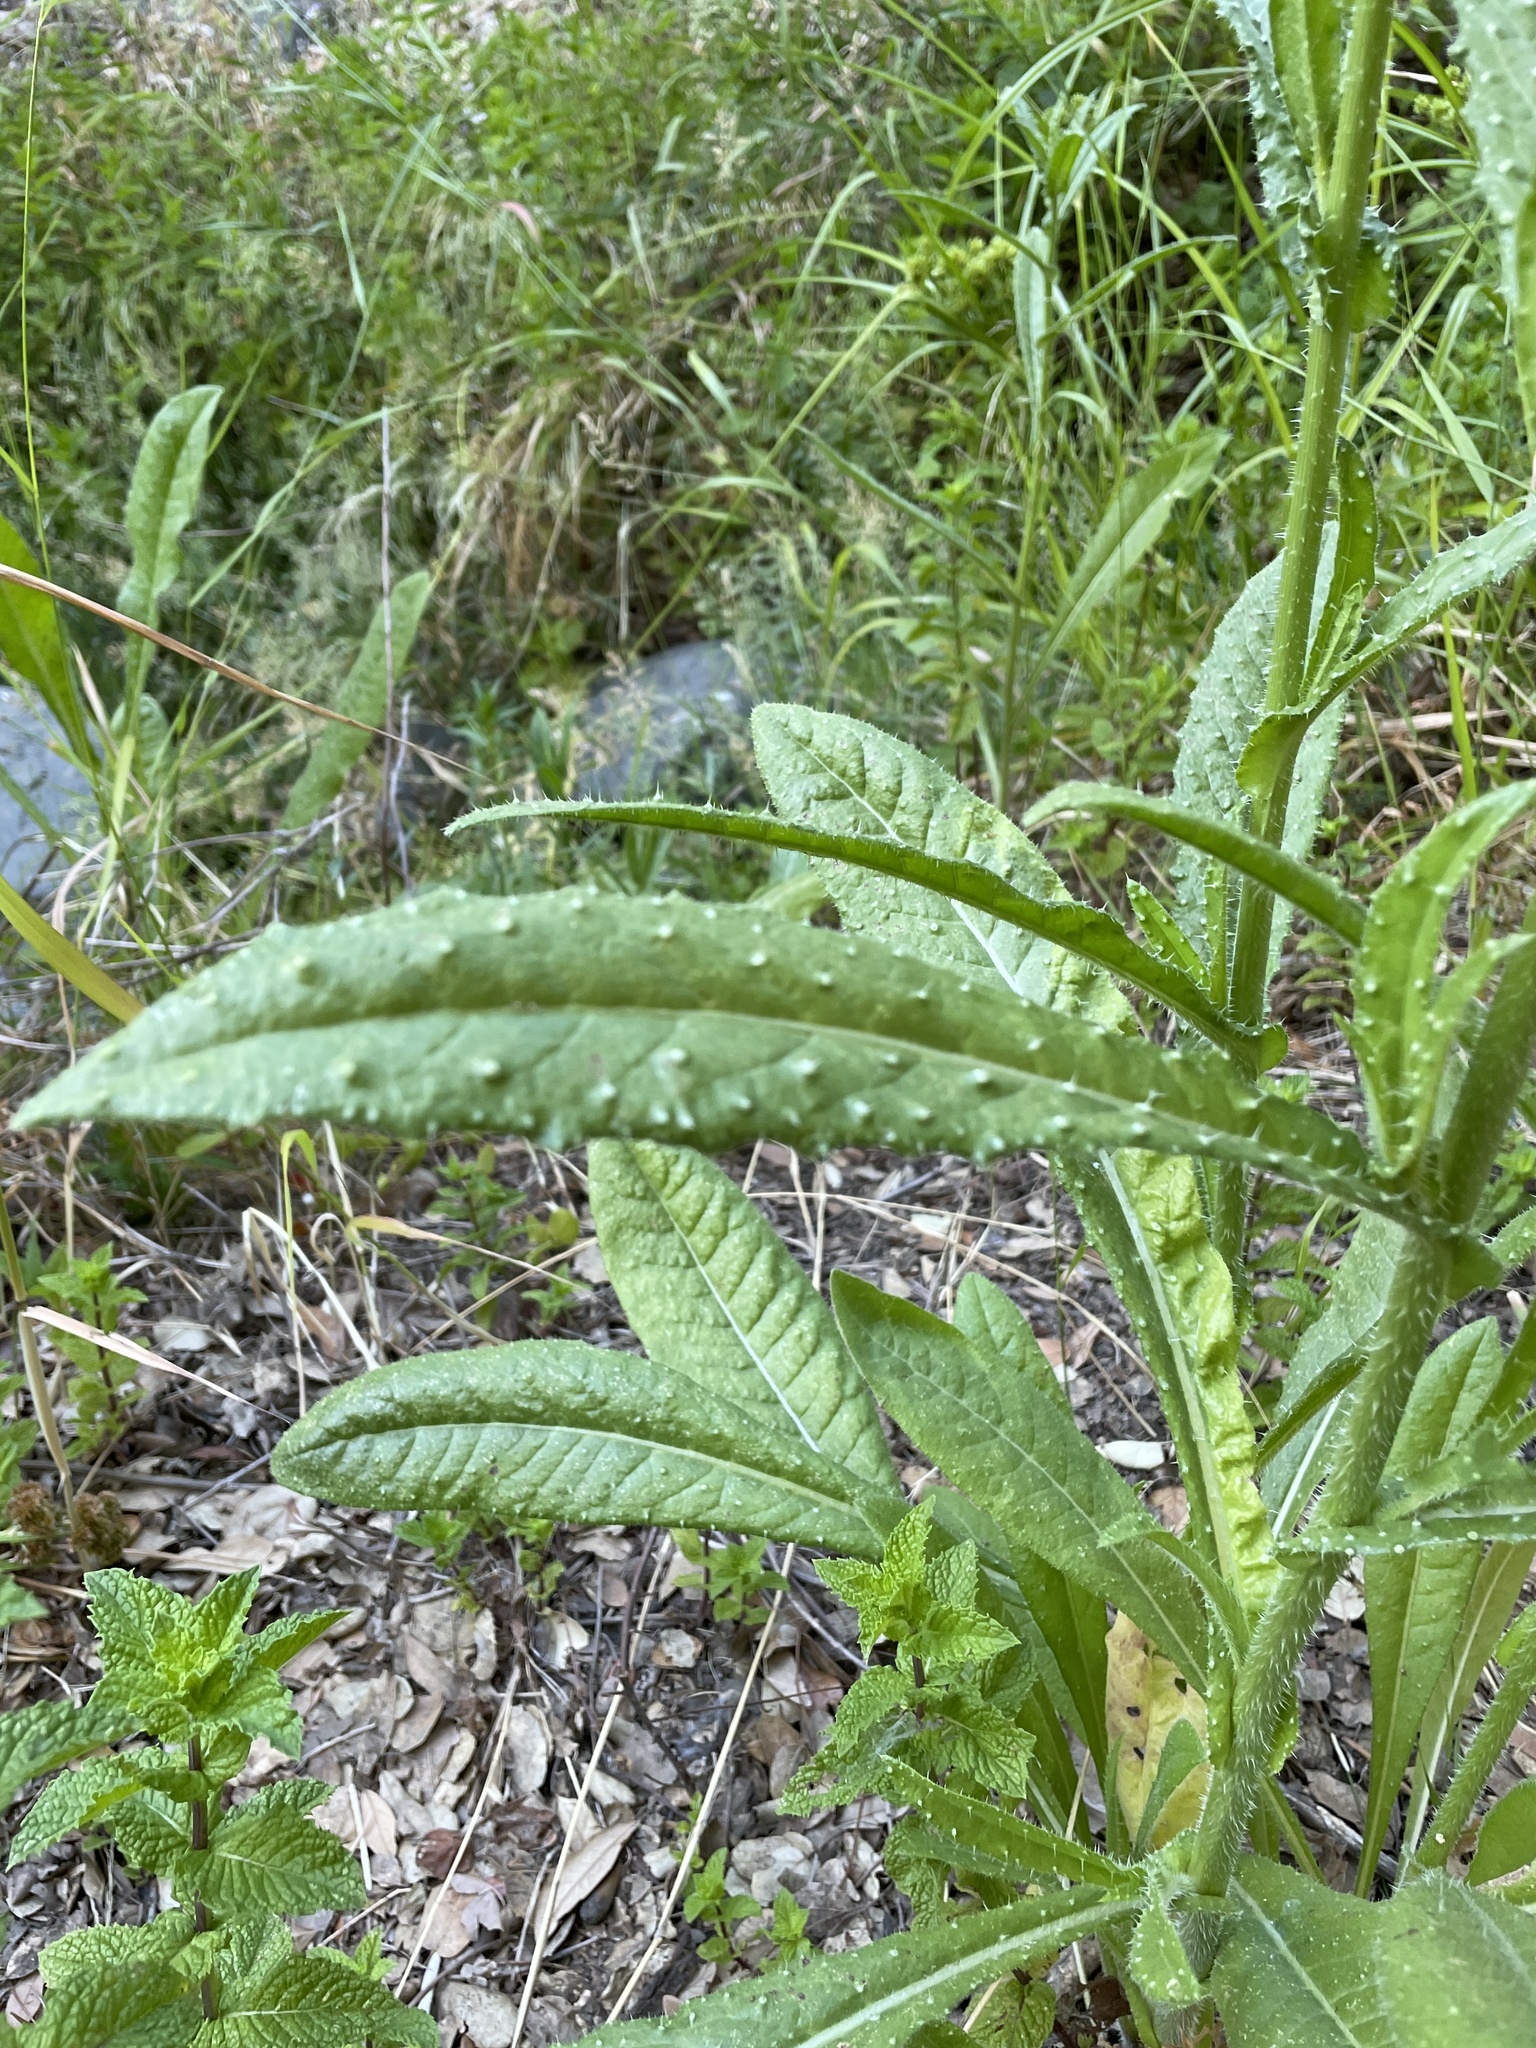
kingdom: Plantae
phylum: Tracheophyta
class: Magnoliopsida
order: Asterales
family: Asteraceae
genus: Helminthotheca
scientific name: Helminthotheca echioides
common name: Ox-tongue
